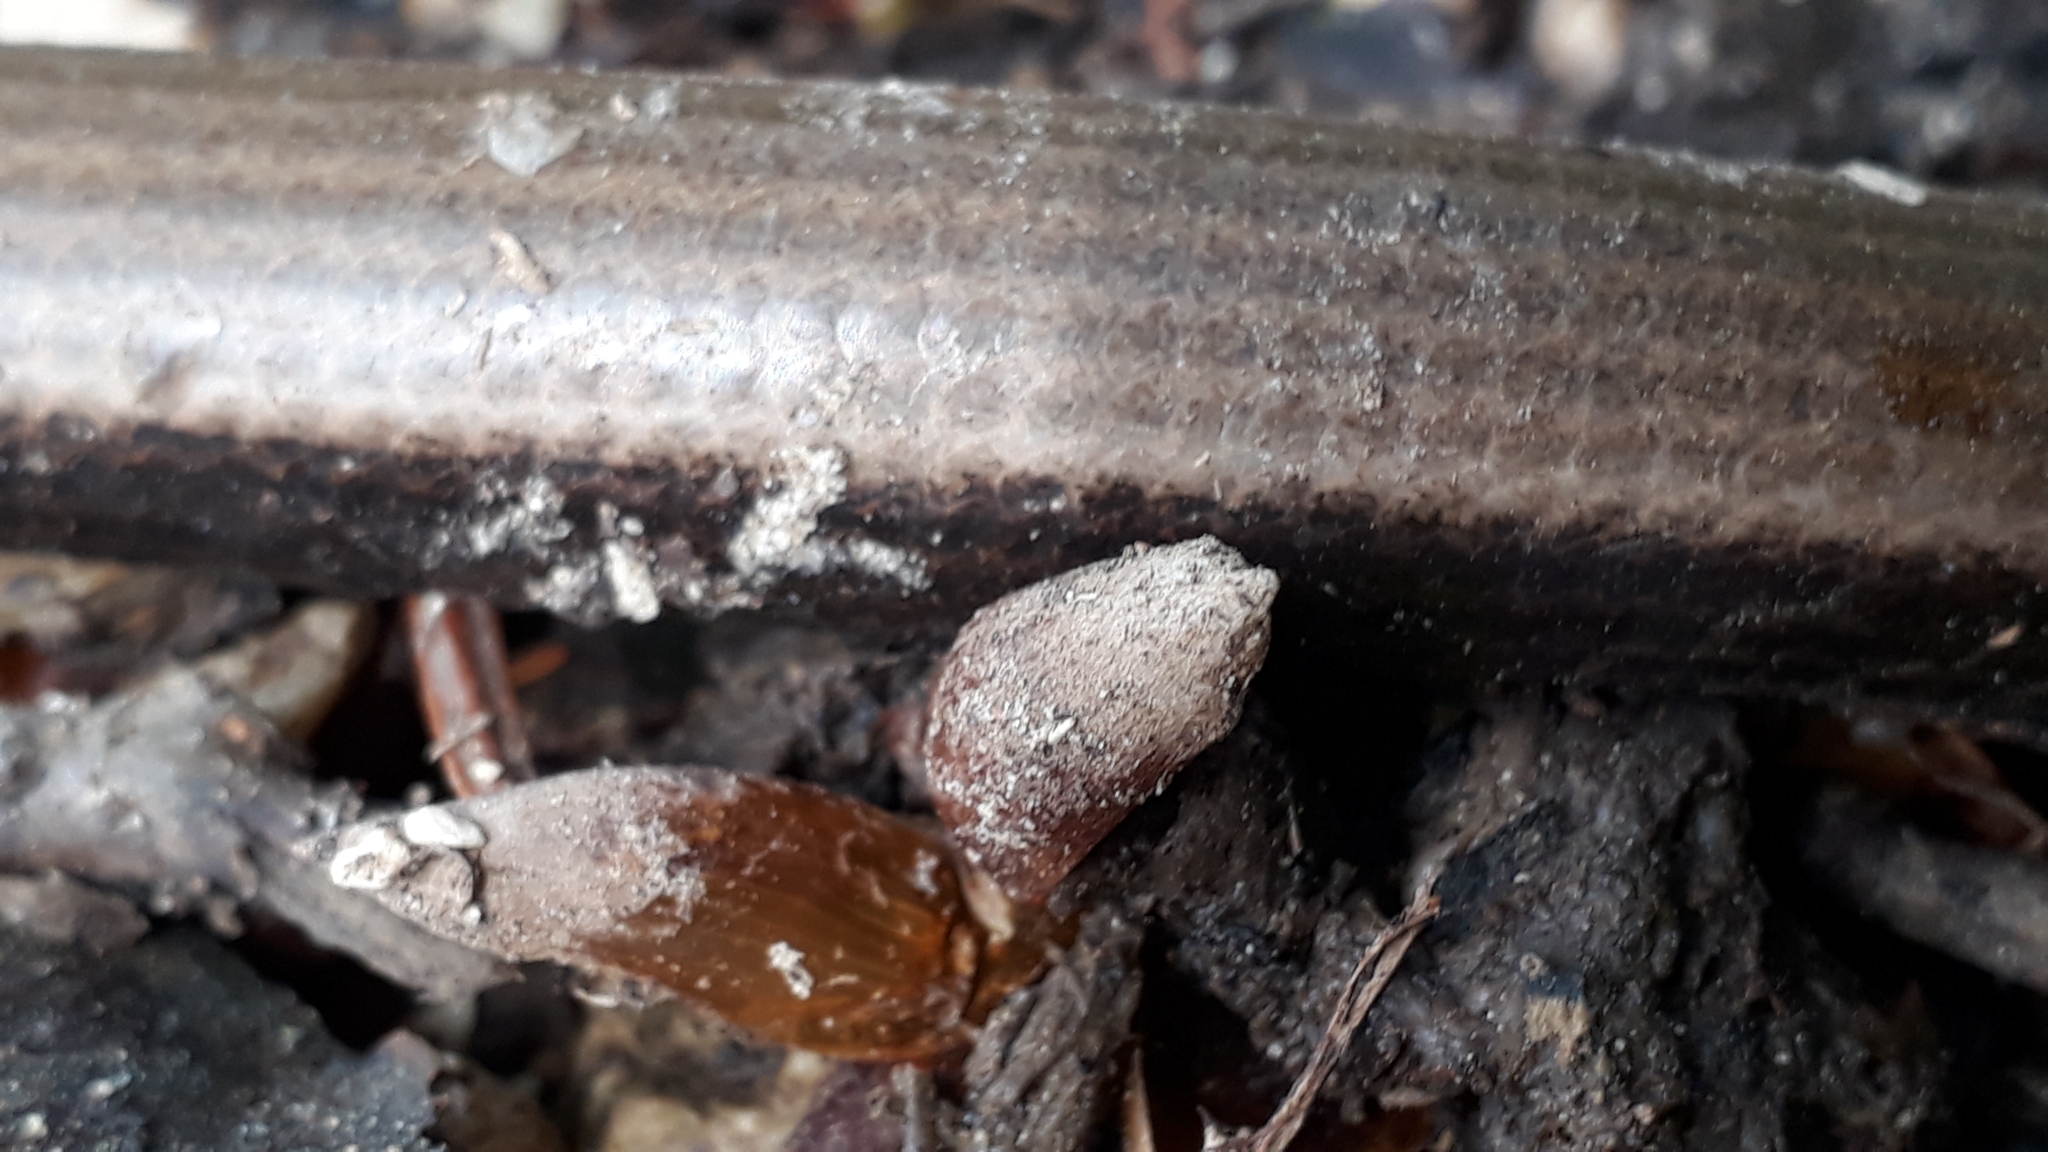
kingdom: Animalia
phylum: Chordata
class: Squamata
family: Anguidae
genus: Anguis
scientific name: Anguis fragilis
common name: Slow worm
